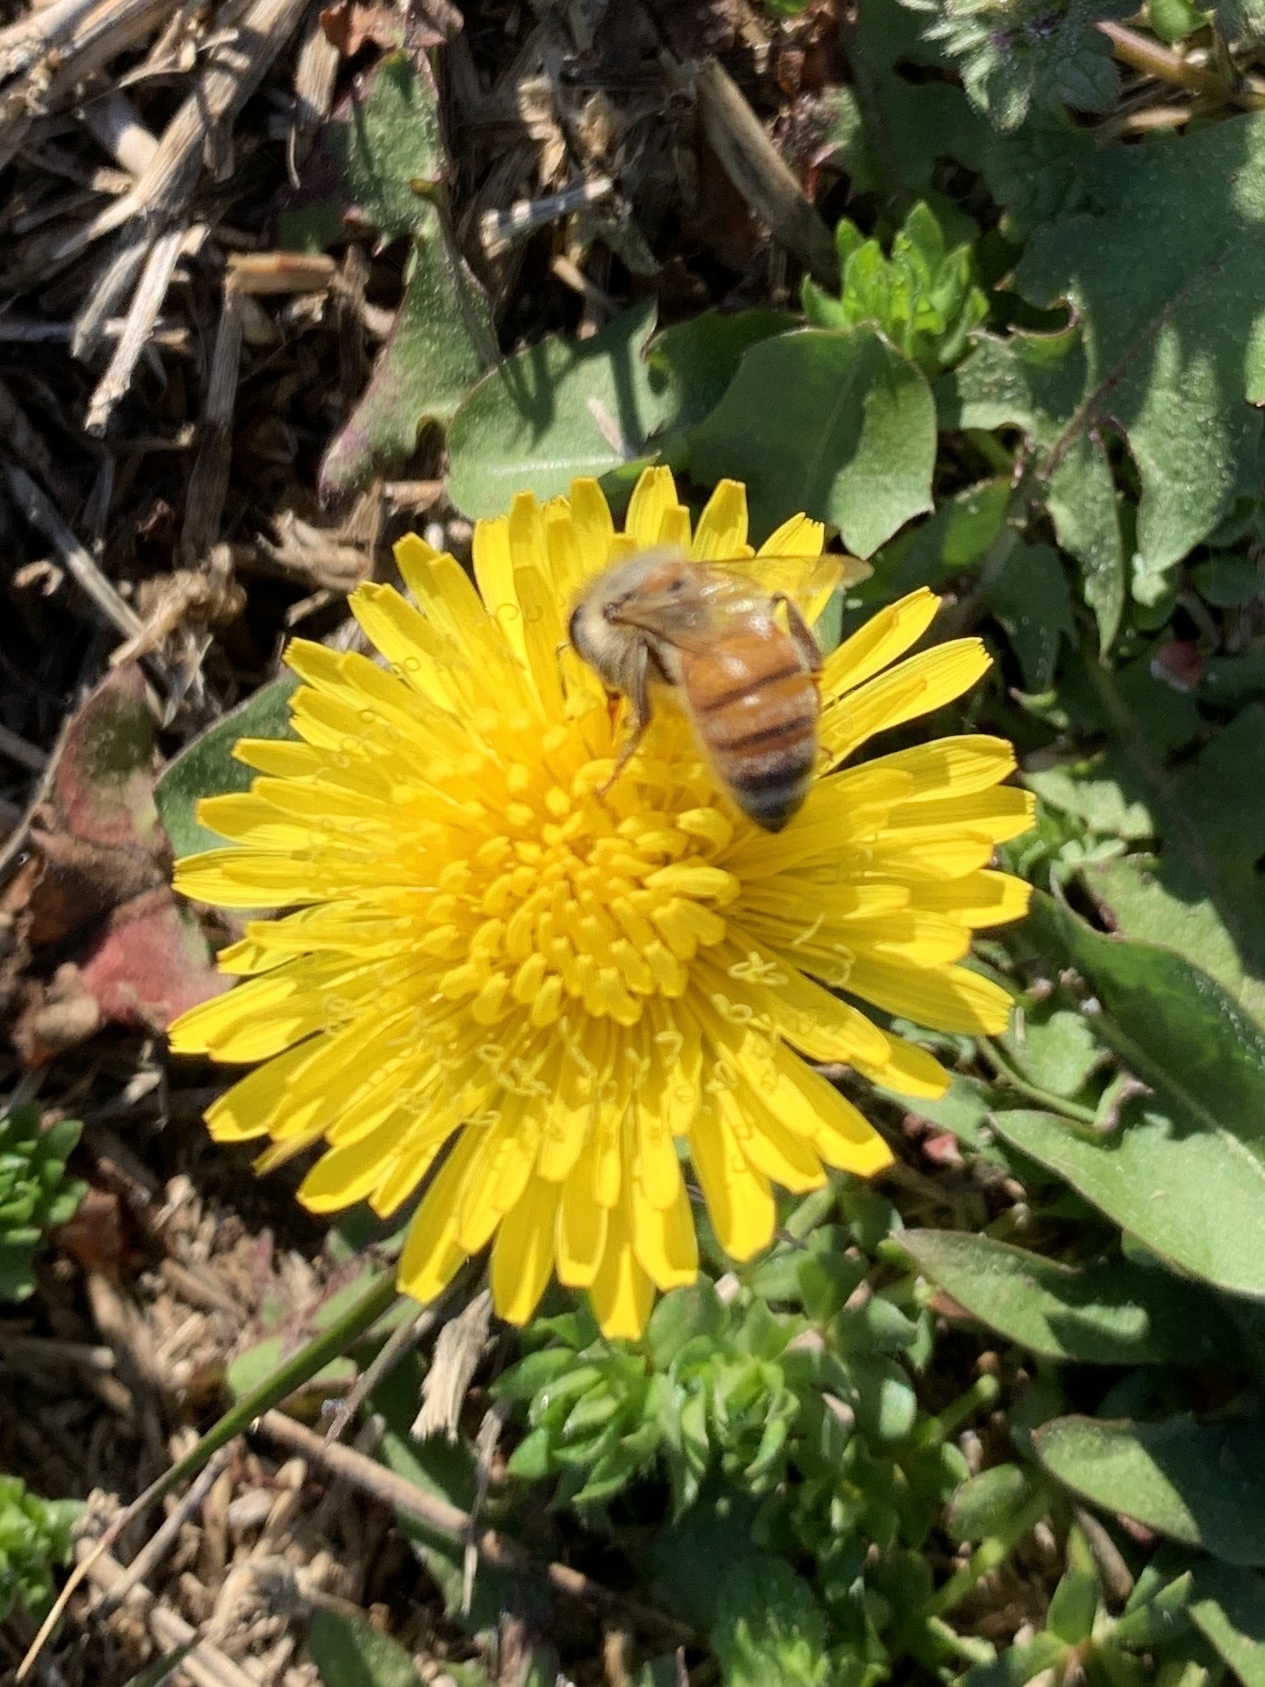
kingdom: Animalia
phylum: Arthropoda
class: Insecta
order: Hymenoptera
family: Apidae
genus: Apis
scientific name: Apis mellifera
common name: Honey bee
